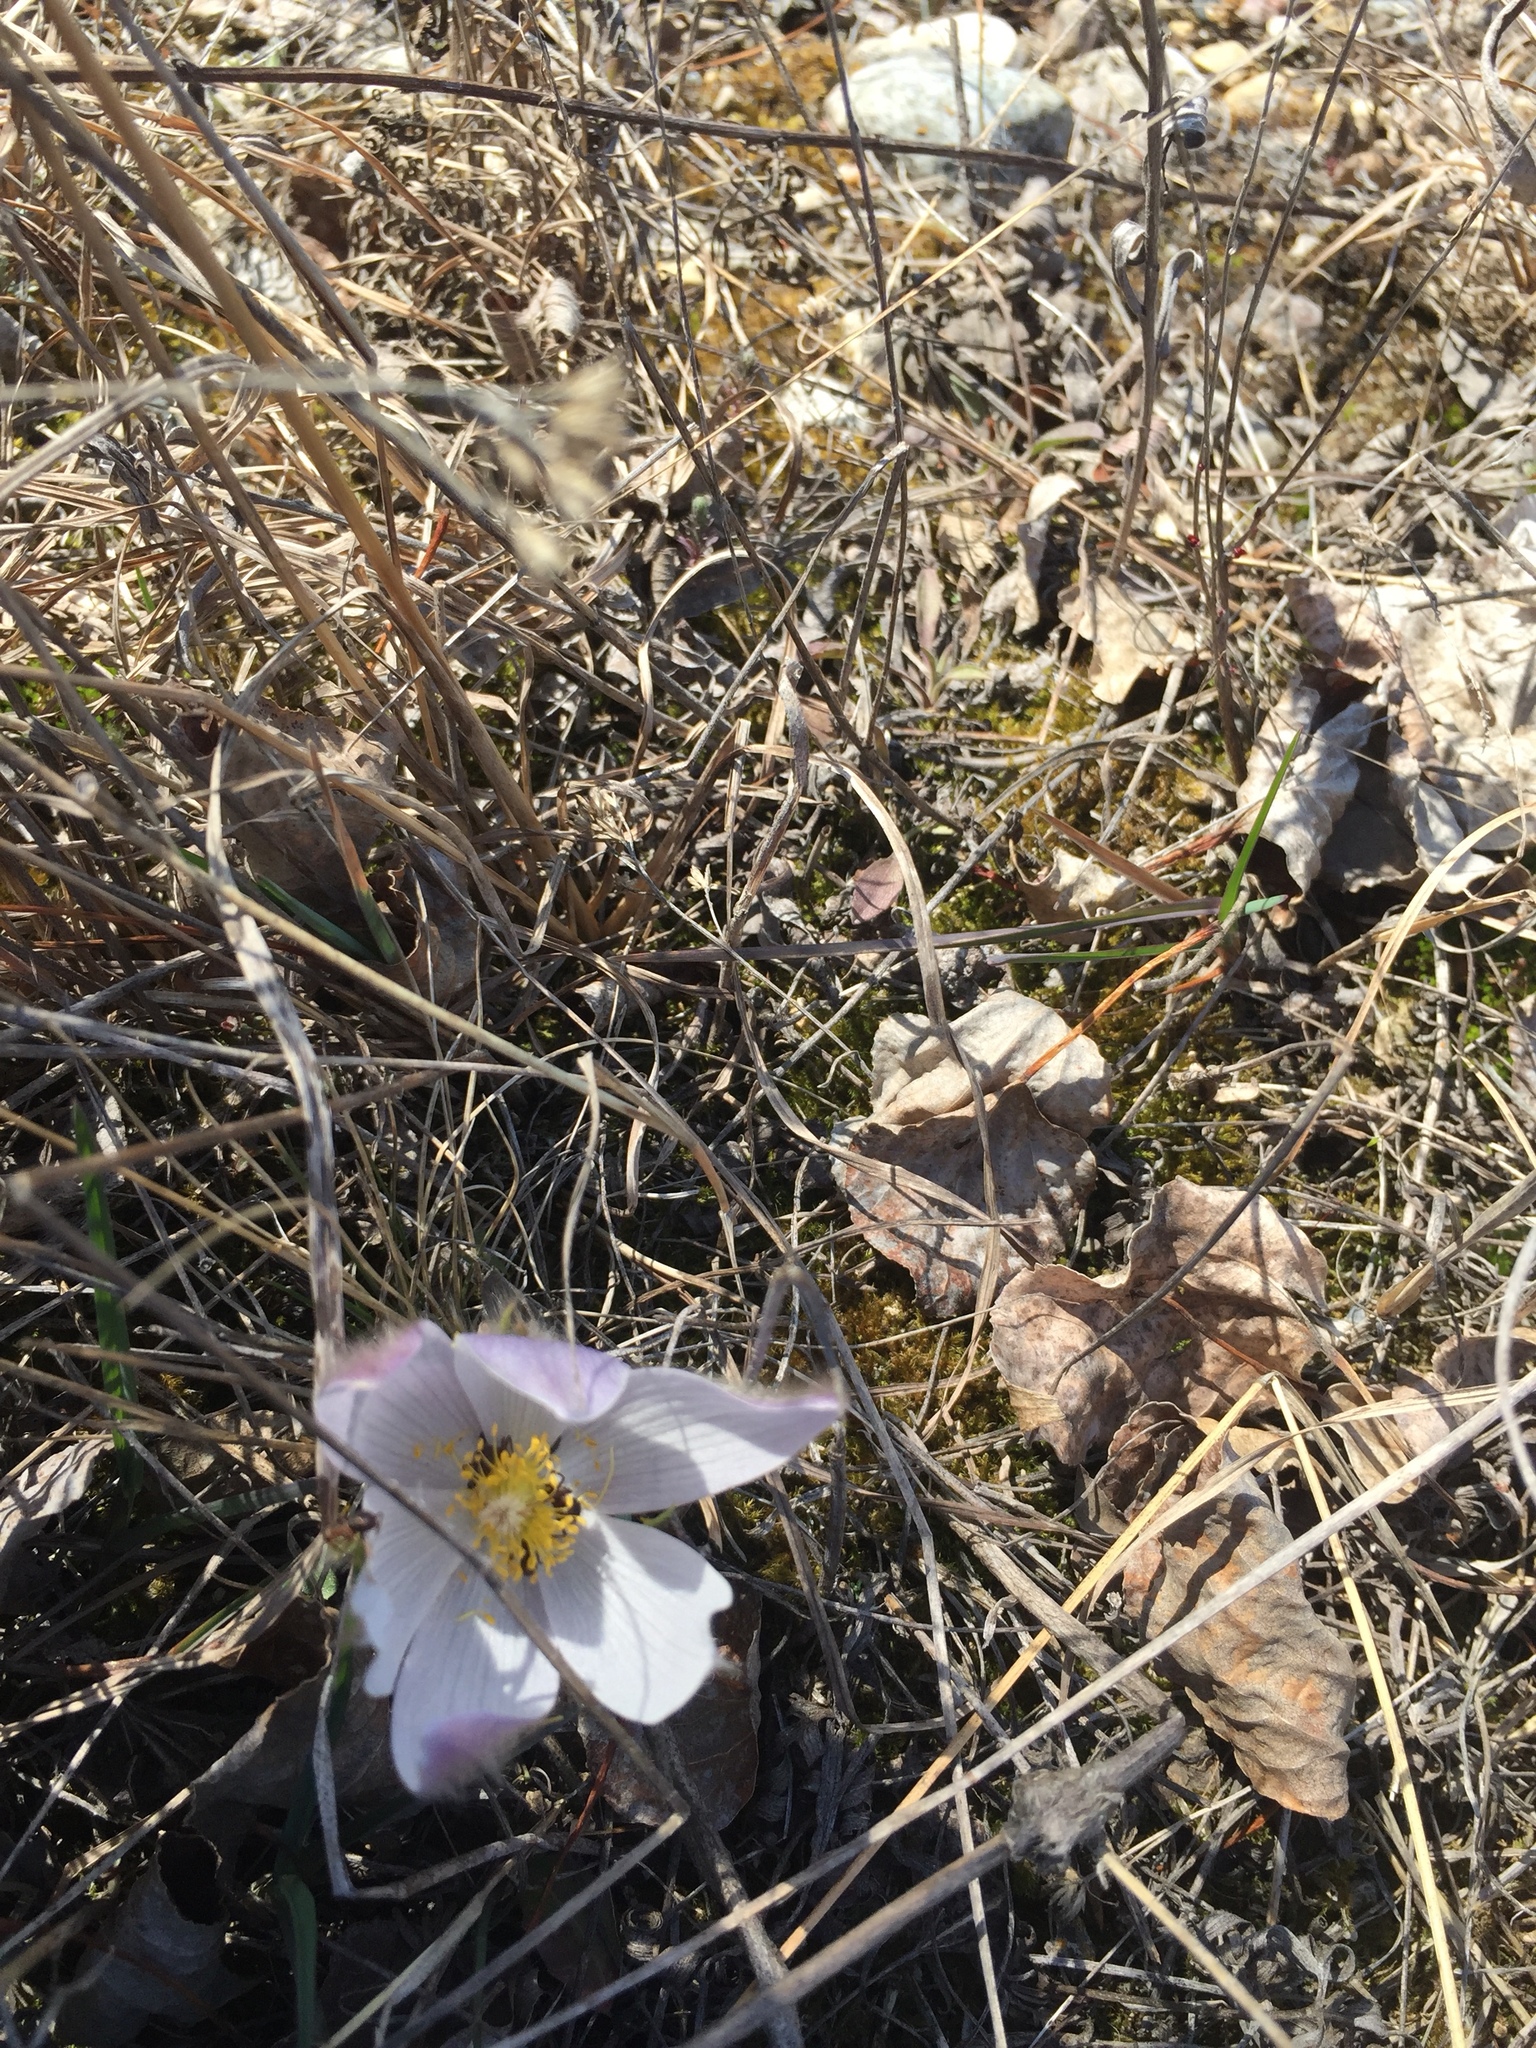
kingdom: Plantae
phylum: Tracheophyta
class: Magnoliopsida
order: Ranunculales
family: Ranunculaceae
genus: Pulsatilla
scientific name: Pulsatilla nuttalliana
